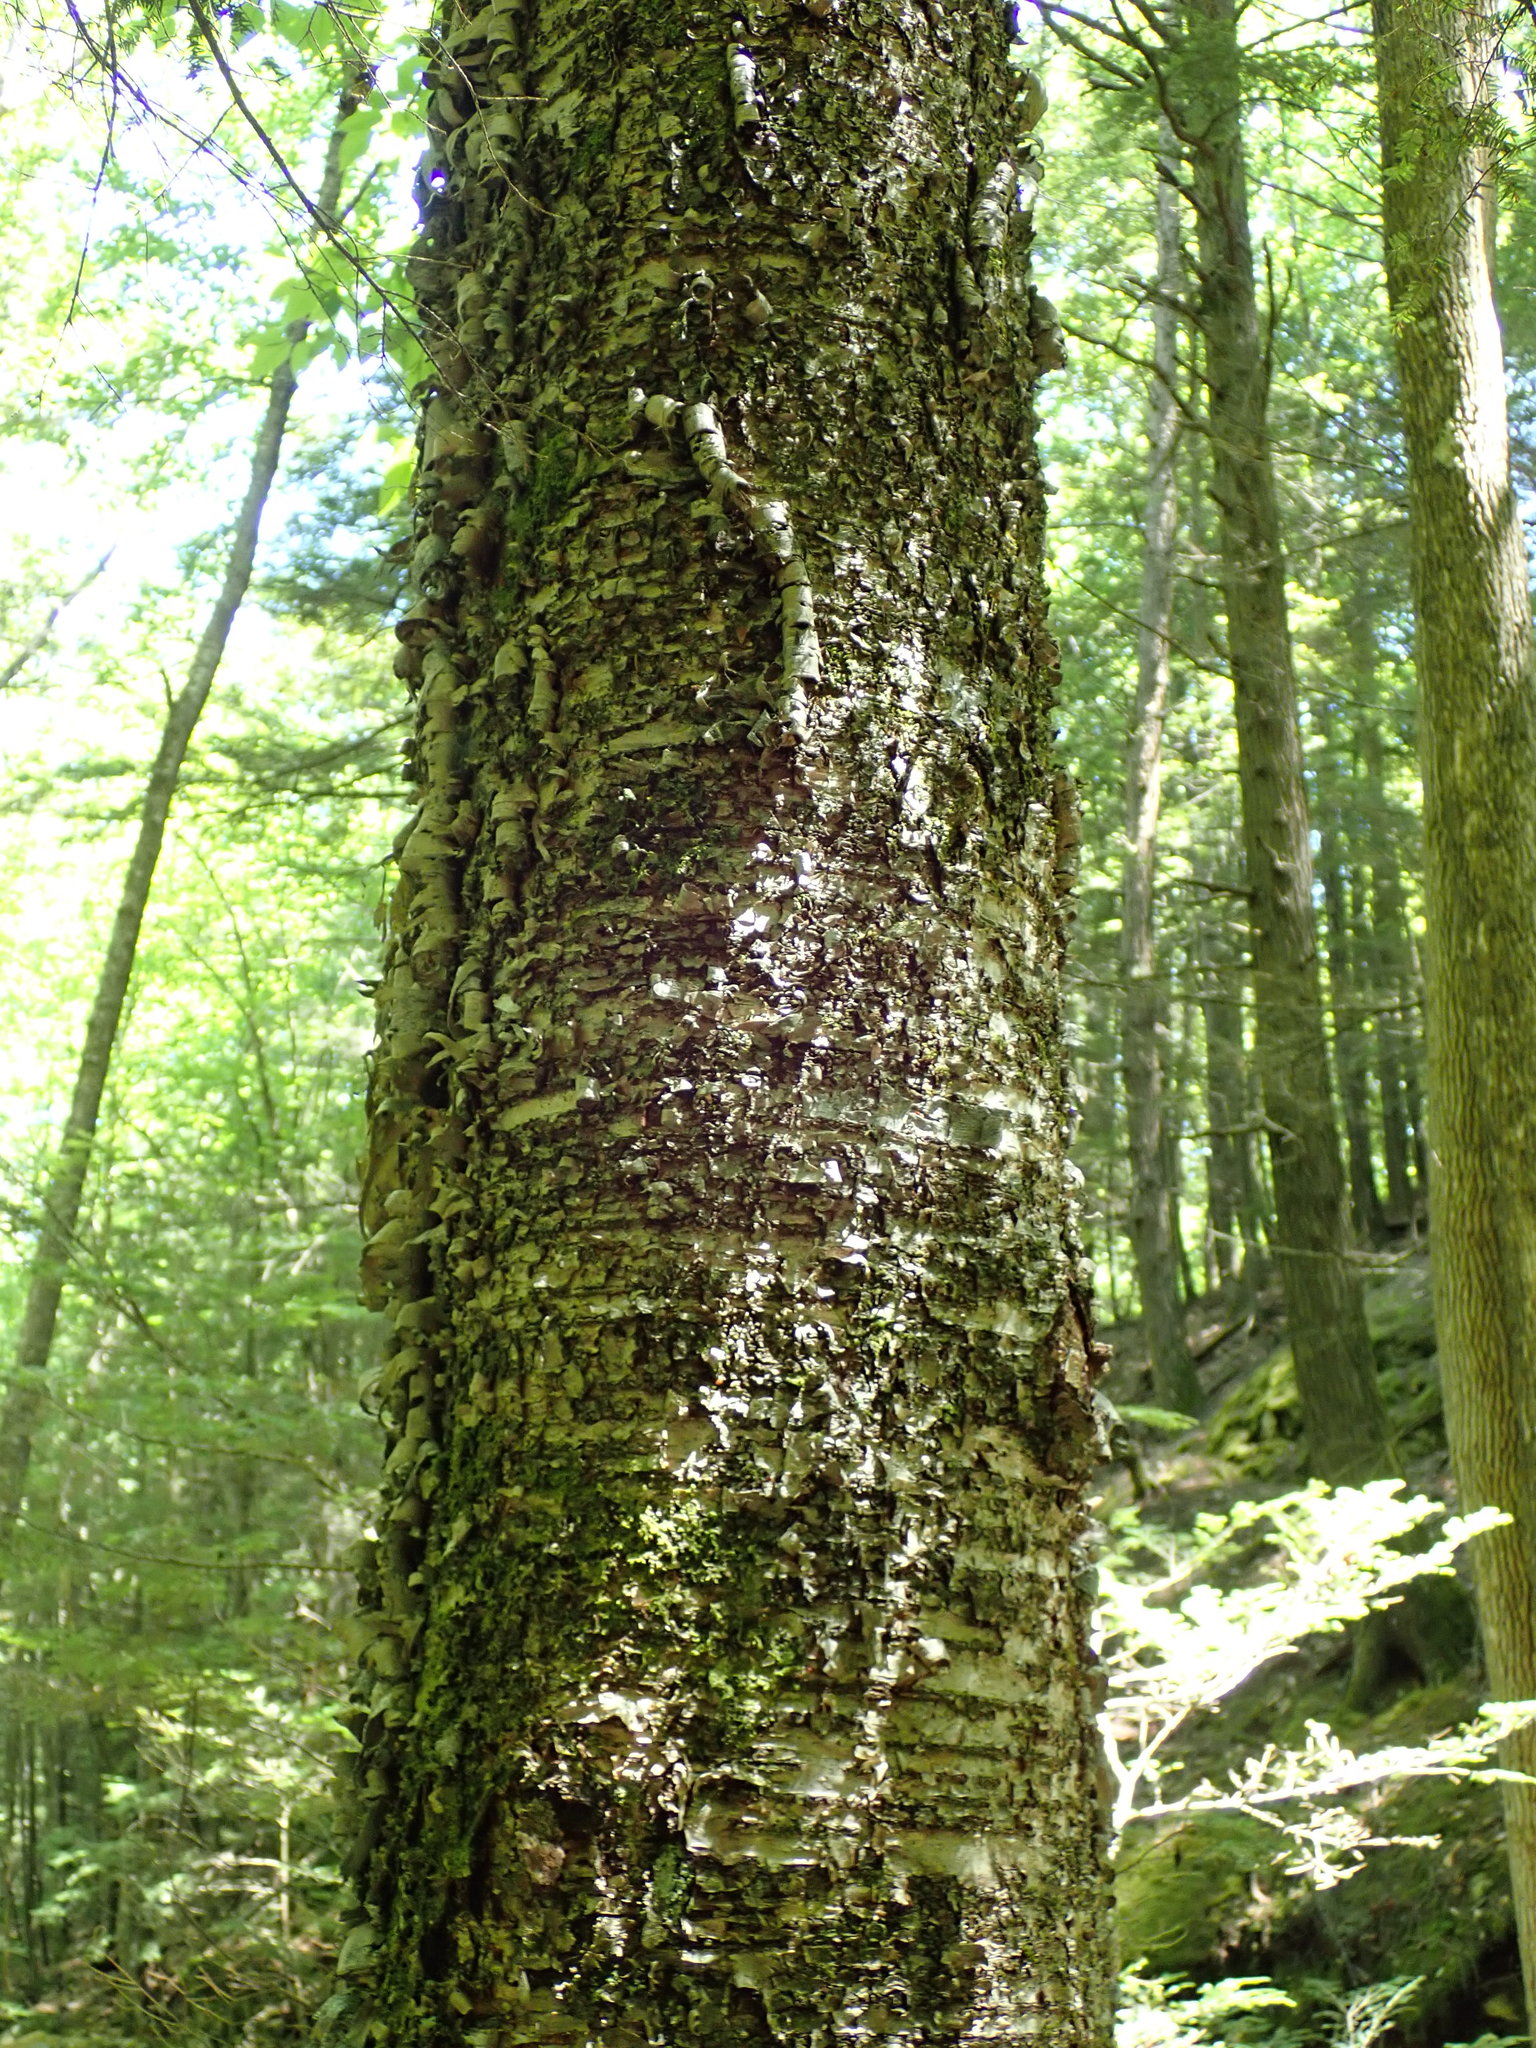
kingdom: Plantae
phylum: Tracheophyta
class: Magnoliopsida
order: Fagales
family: Betulaceae
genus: Betula
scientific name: Betula alleghaniensis
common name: Yellow birch
